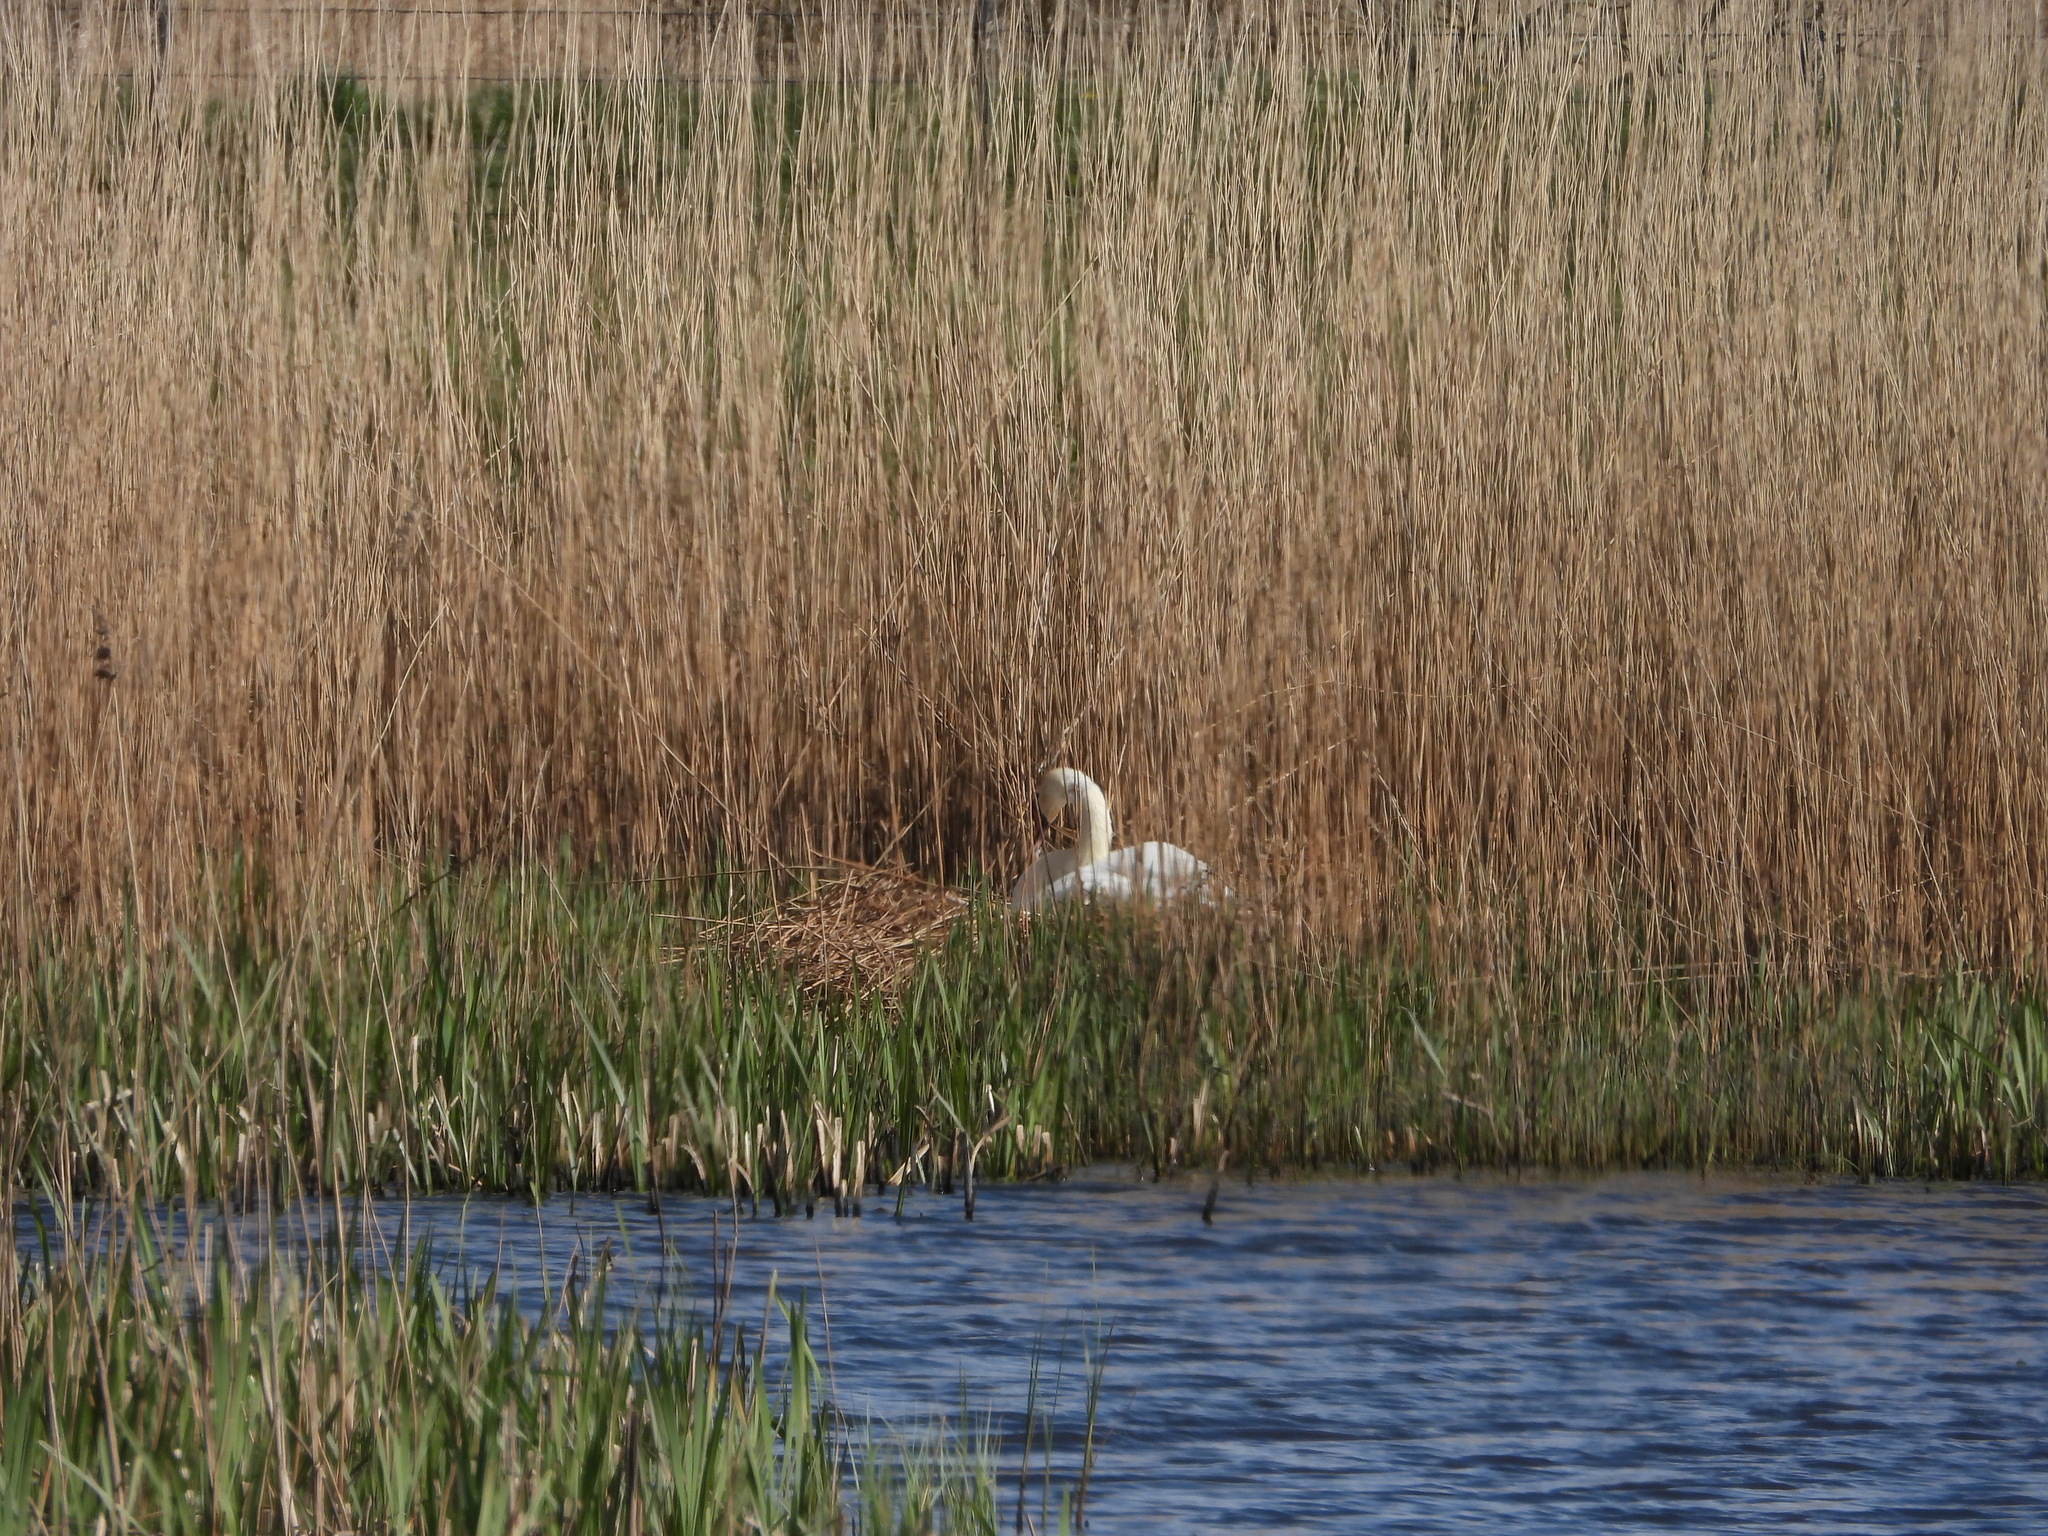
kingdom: Animalia
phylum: Chordata
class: Aves
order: Anseriformes
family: Anatidae
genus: Cygnus
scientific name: Cygnus olor
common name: Mute swan
